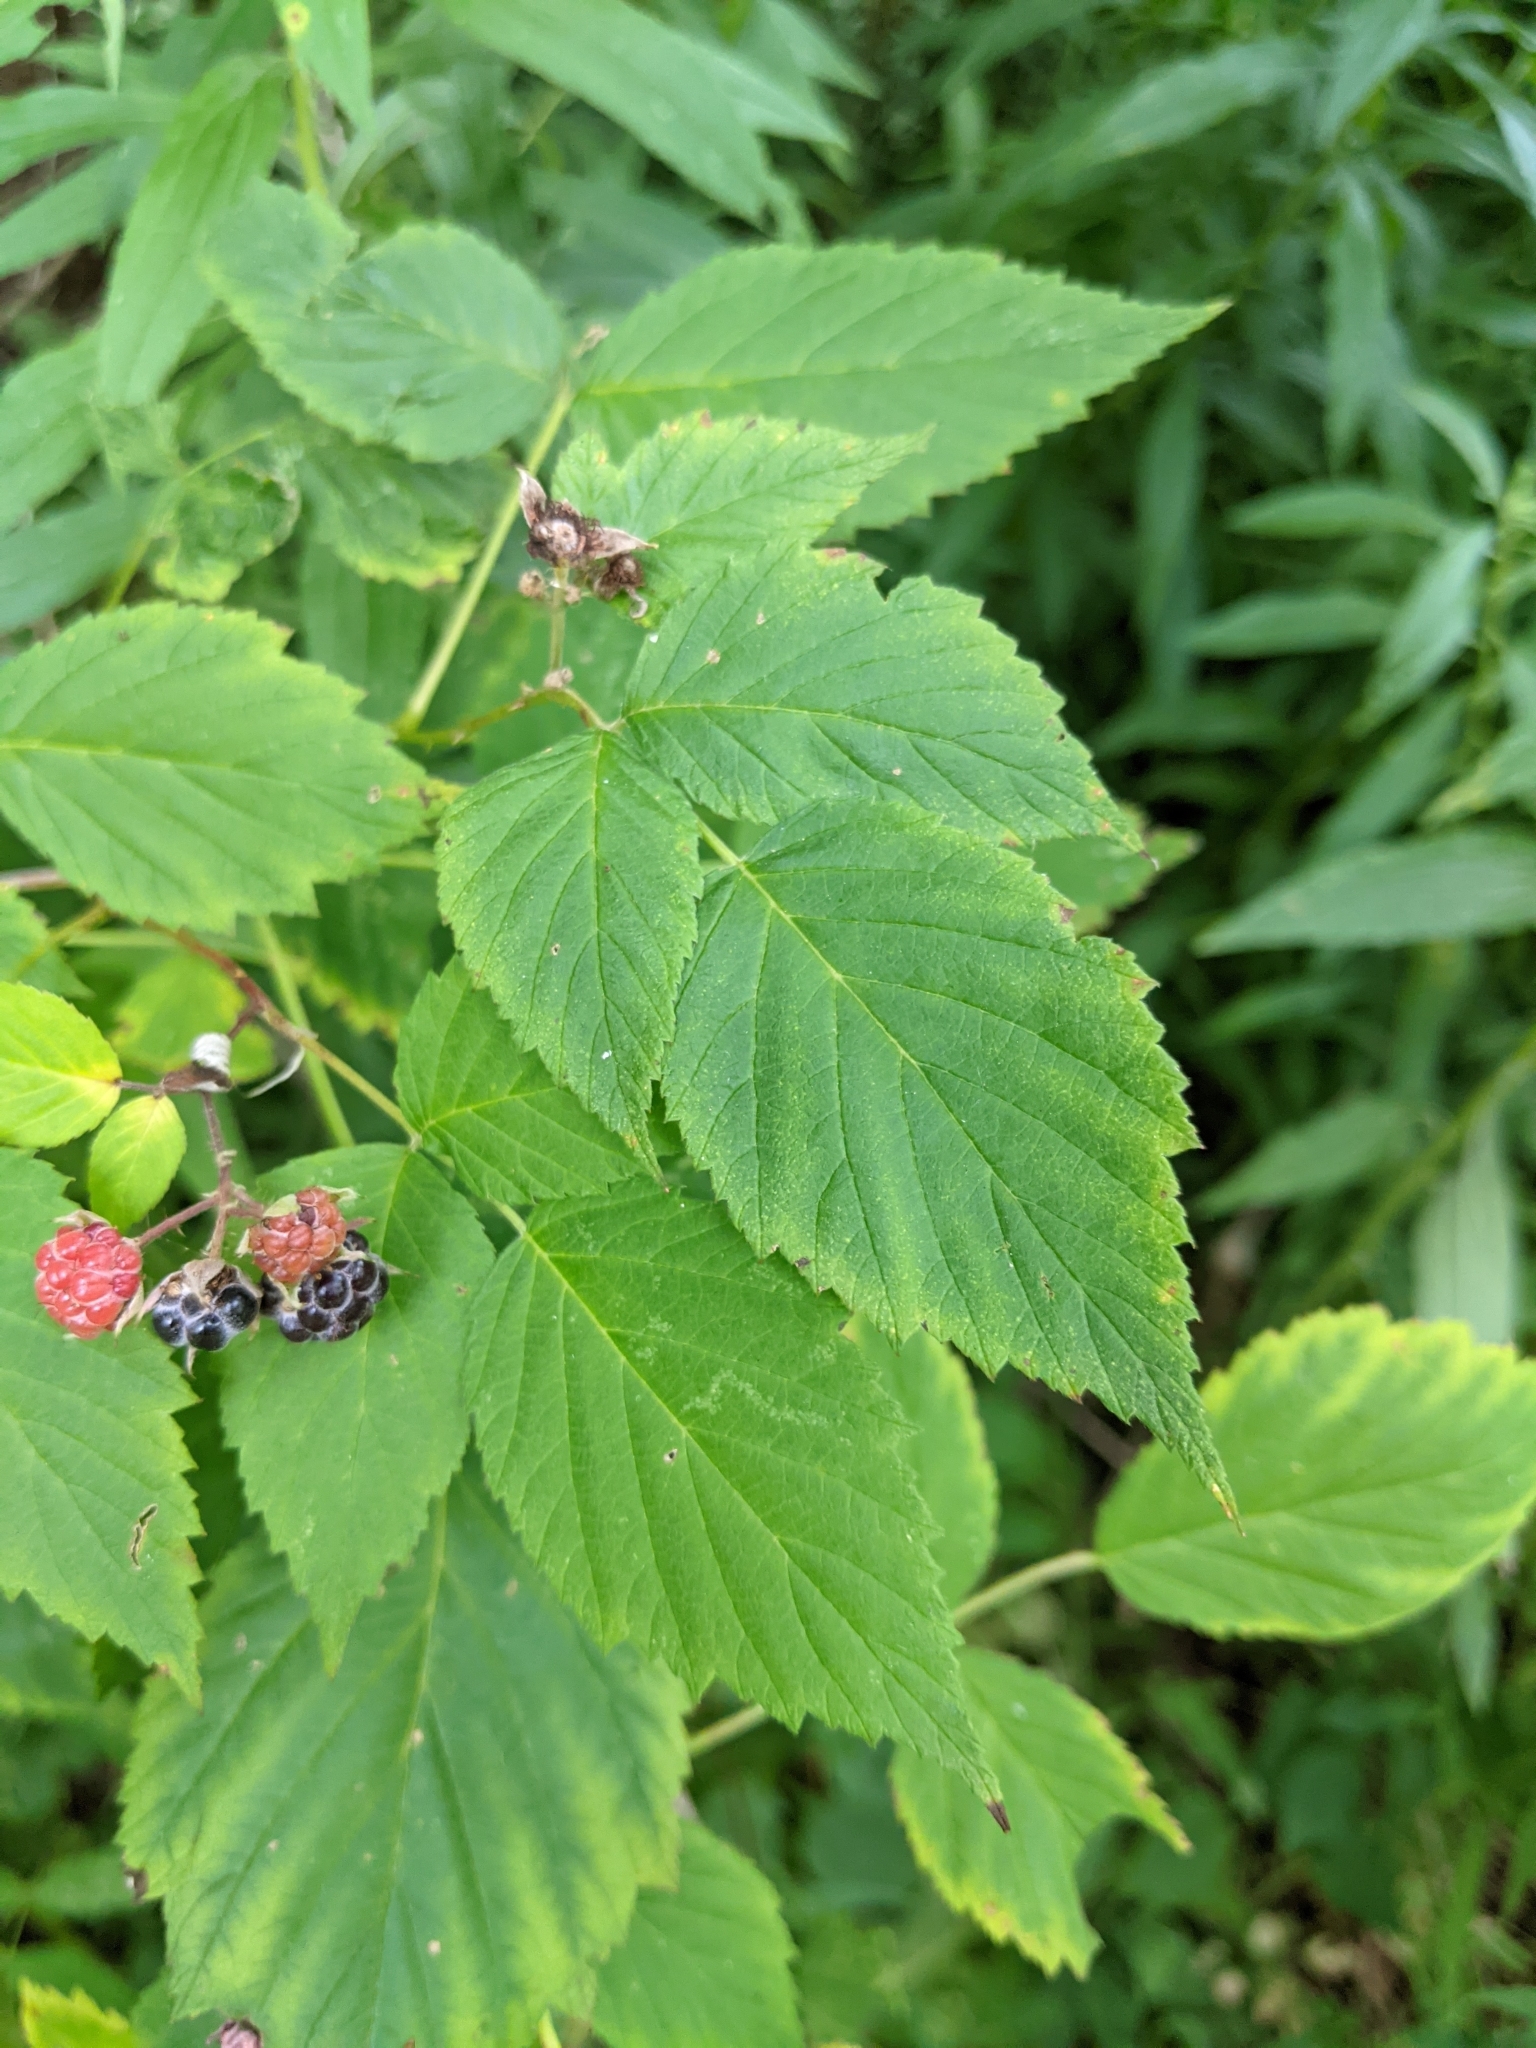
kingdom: Plantae
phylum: Tracheophyta
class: Magnoliopsida
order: Rosales
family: Rosaceae
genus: Rubus
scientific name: Rubus occidentalis
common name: Black raspberry
